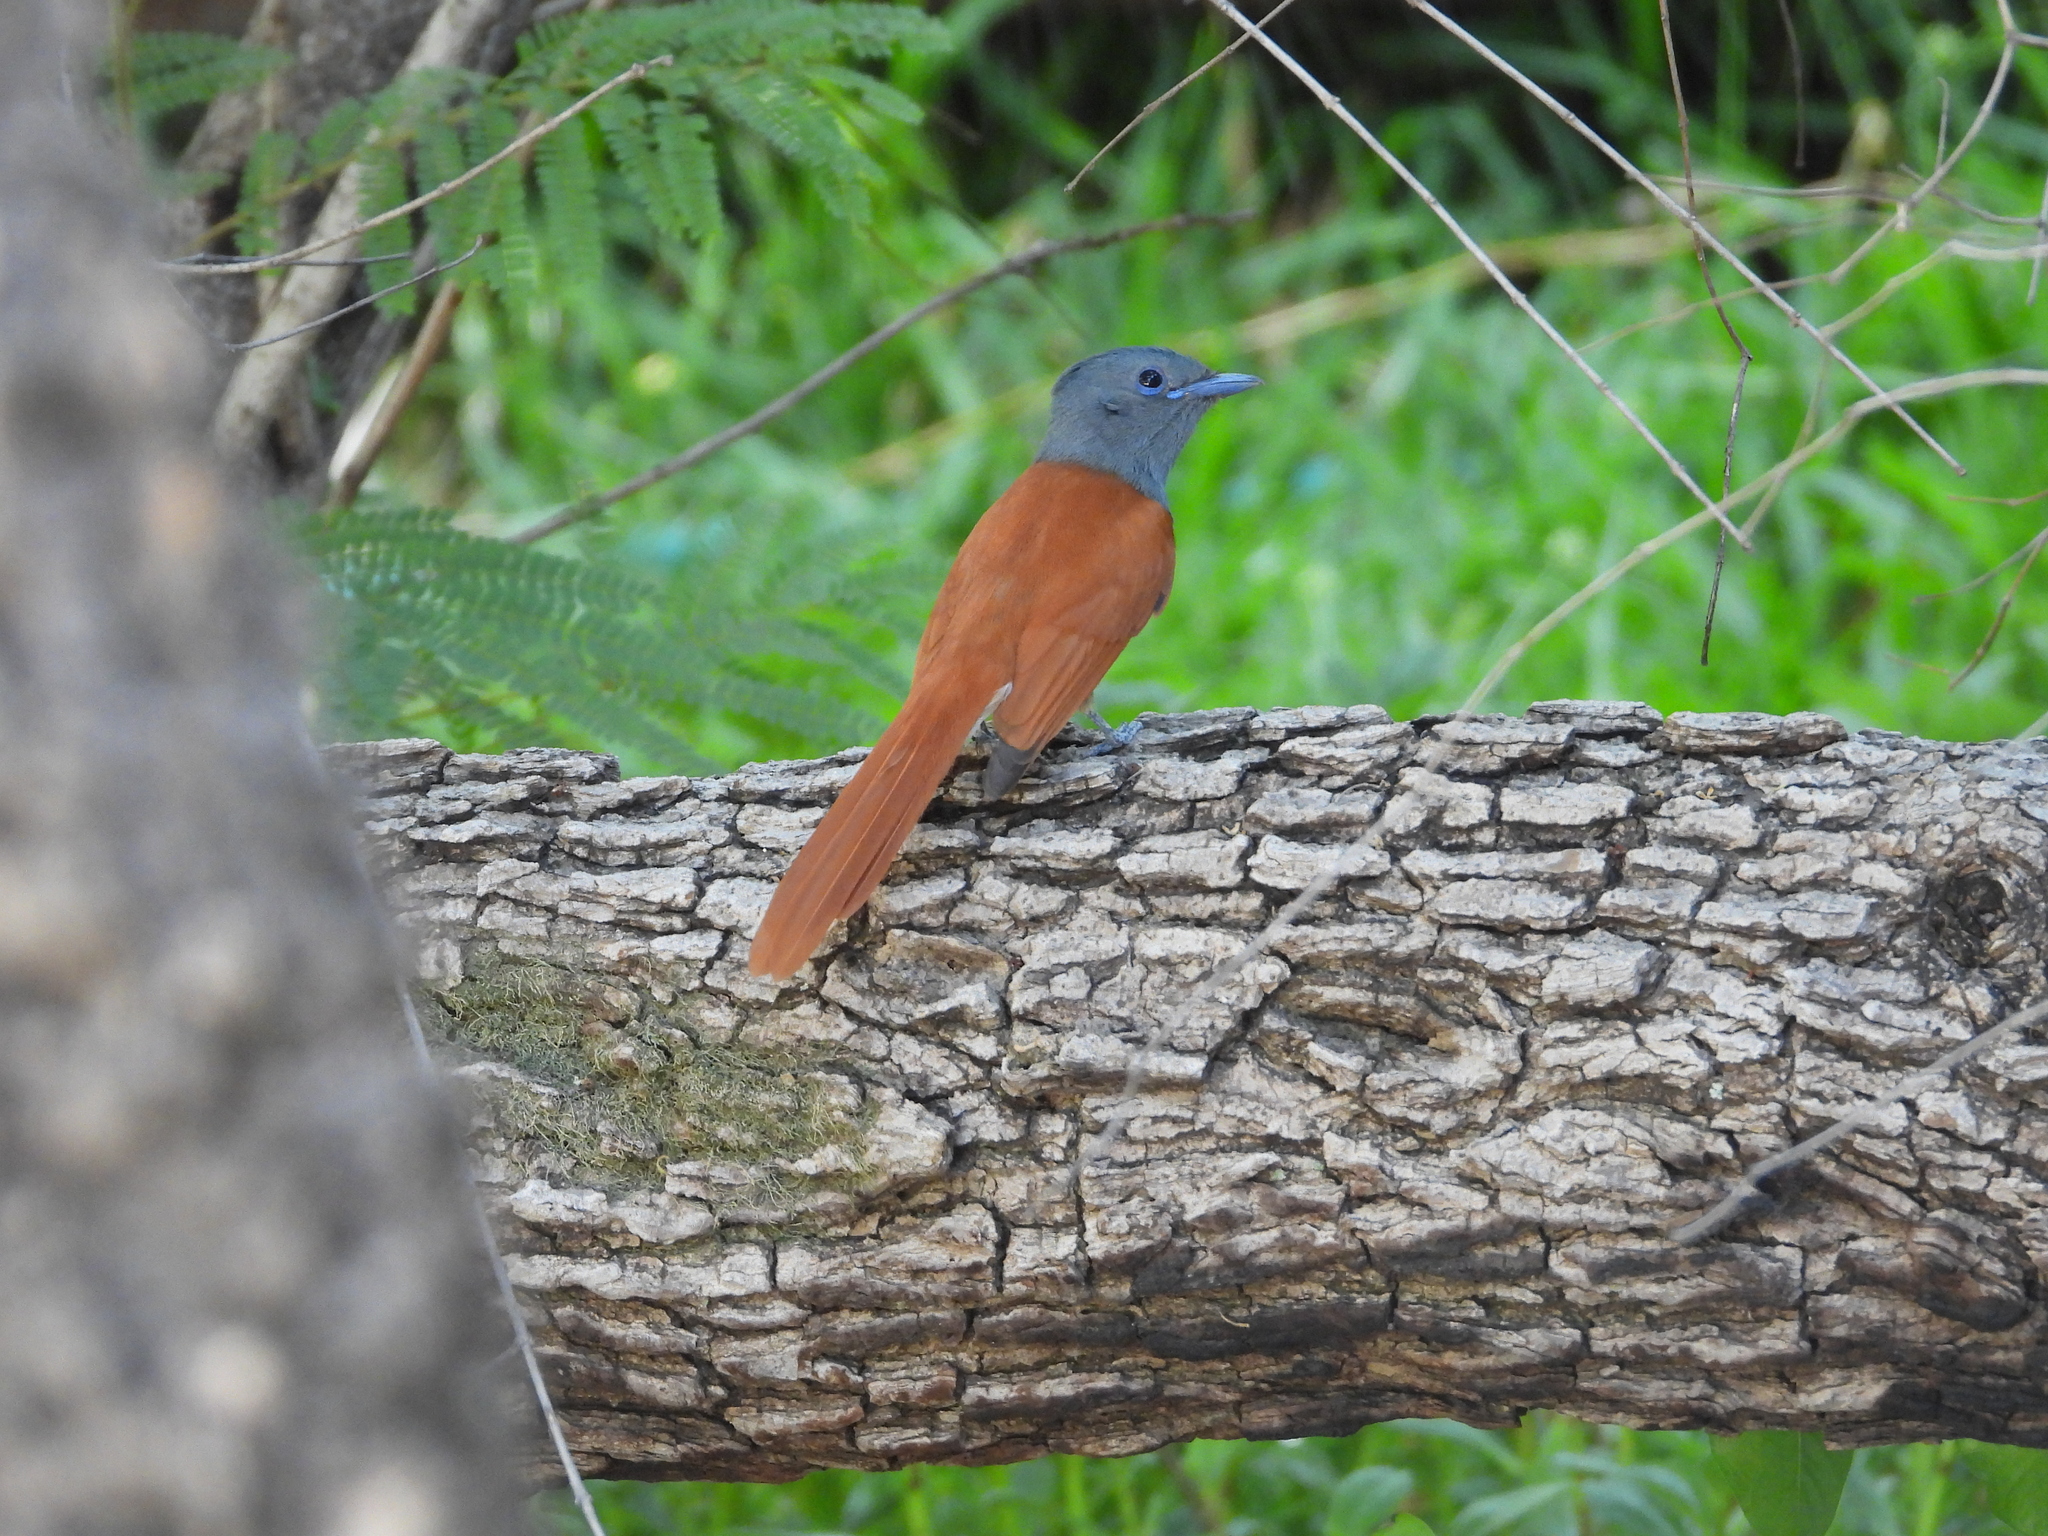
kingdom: Animalia
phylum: Chordata
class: Aves
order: Passeriformes
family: Monarchidae
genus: Terpsiphone
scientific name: Terpsiphone viridis
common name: African paradise flycatcher
